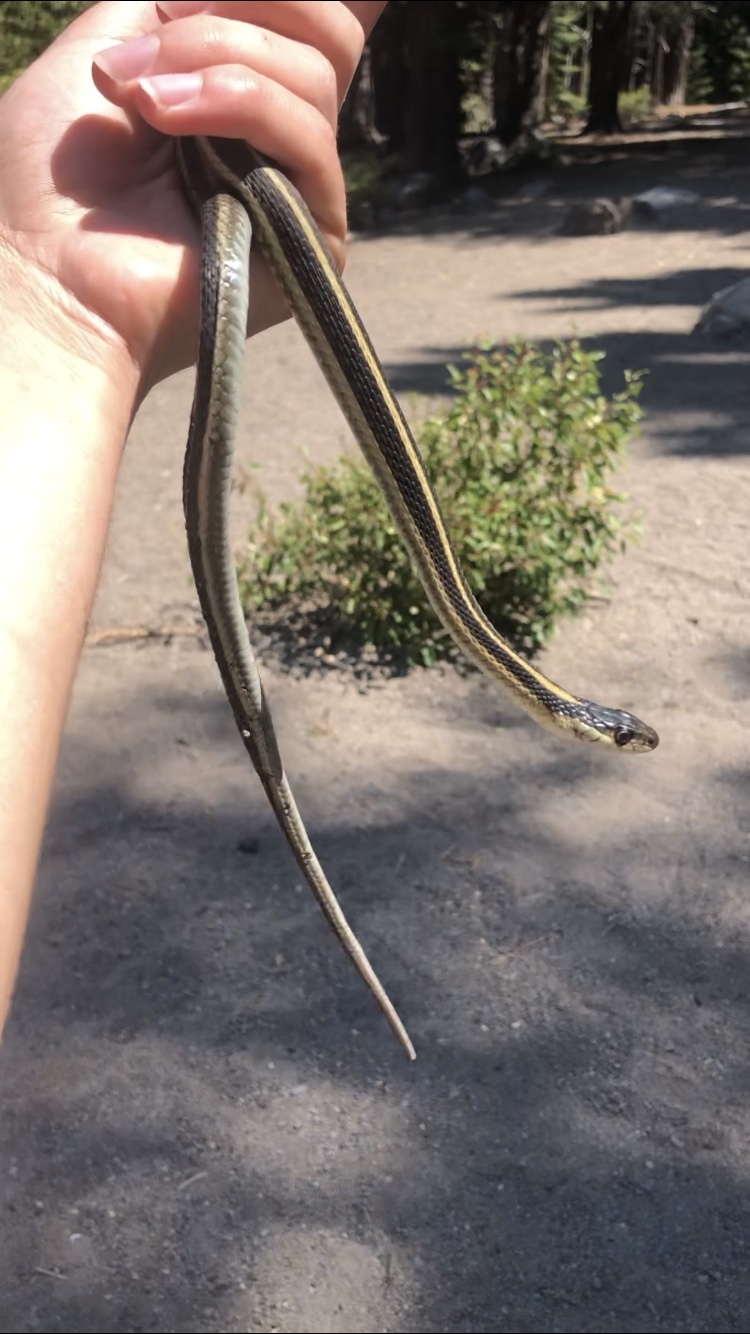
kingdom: Animalia
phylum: Chordata
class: Squamata
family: Colubridae
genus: Thamnophis
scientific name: Thamnophis sirtalis
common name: Common garter snake
